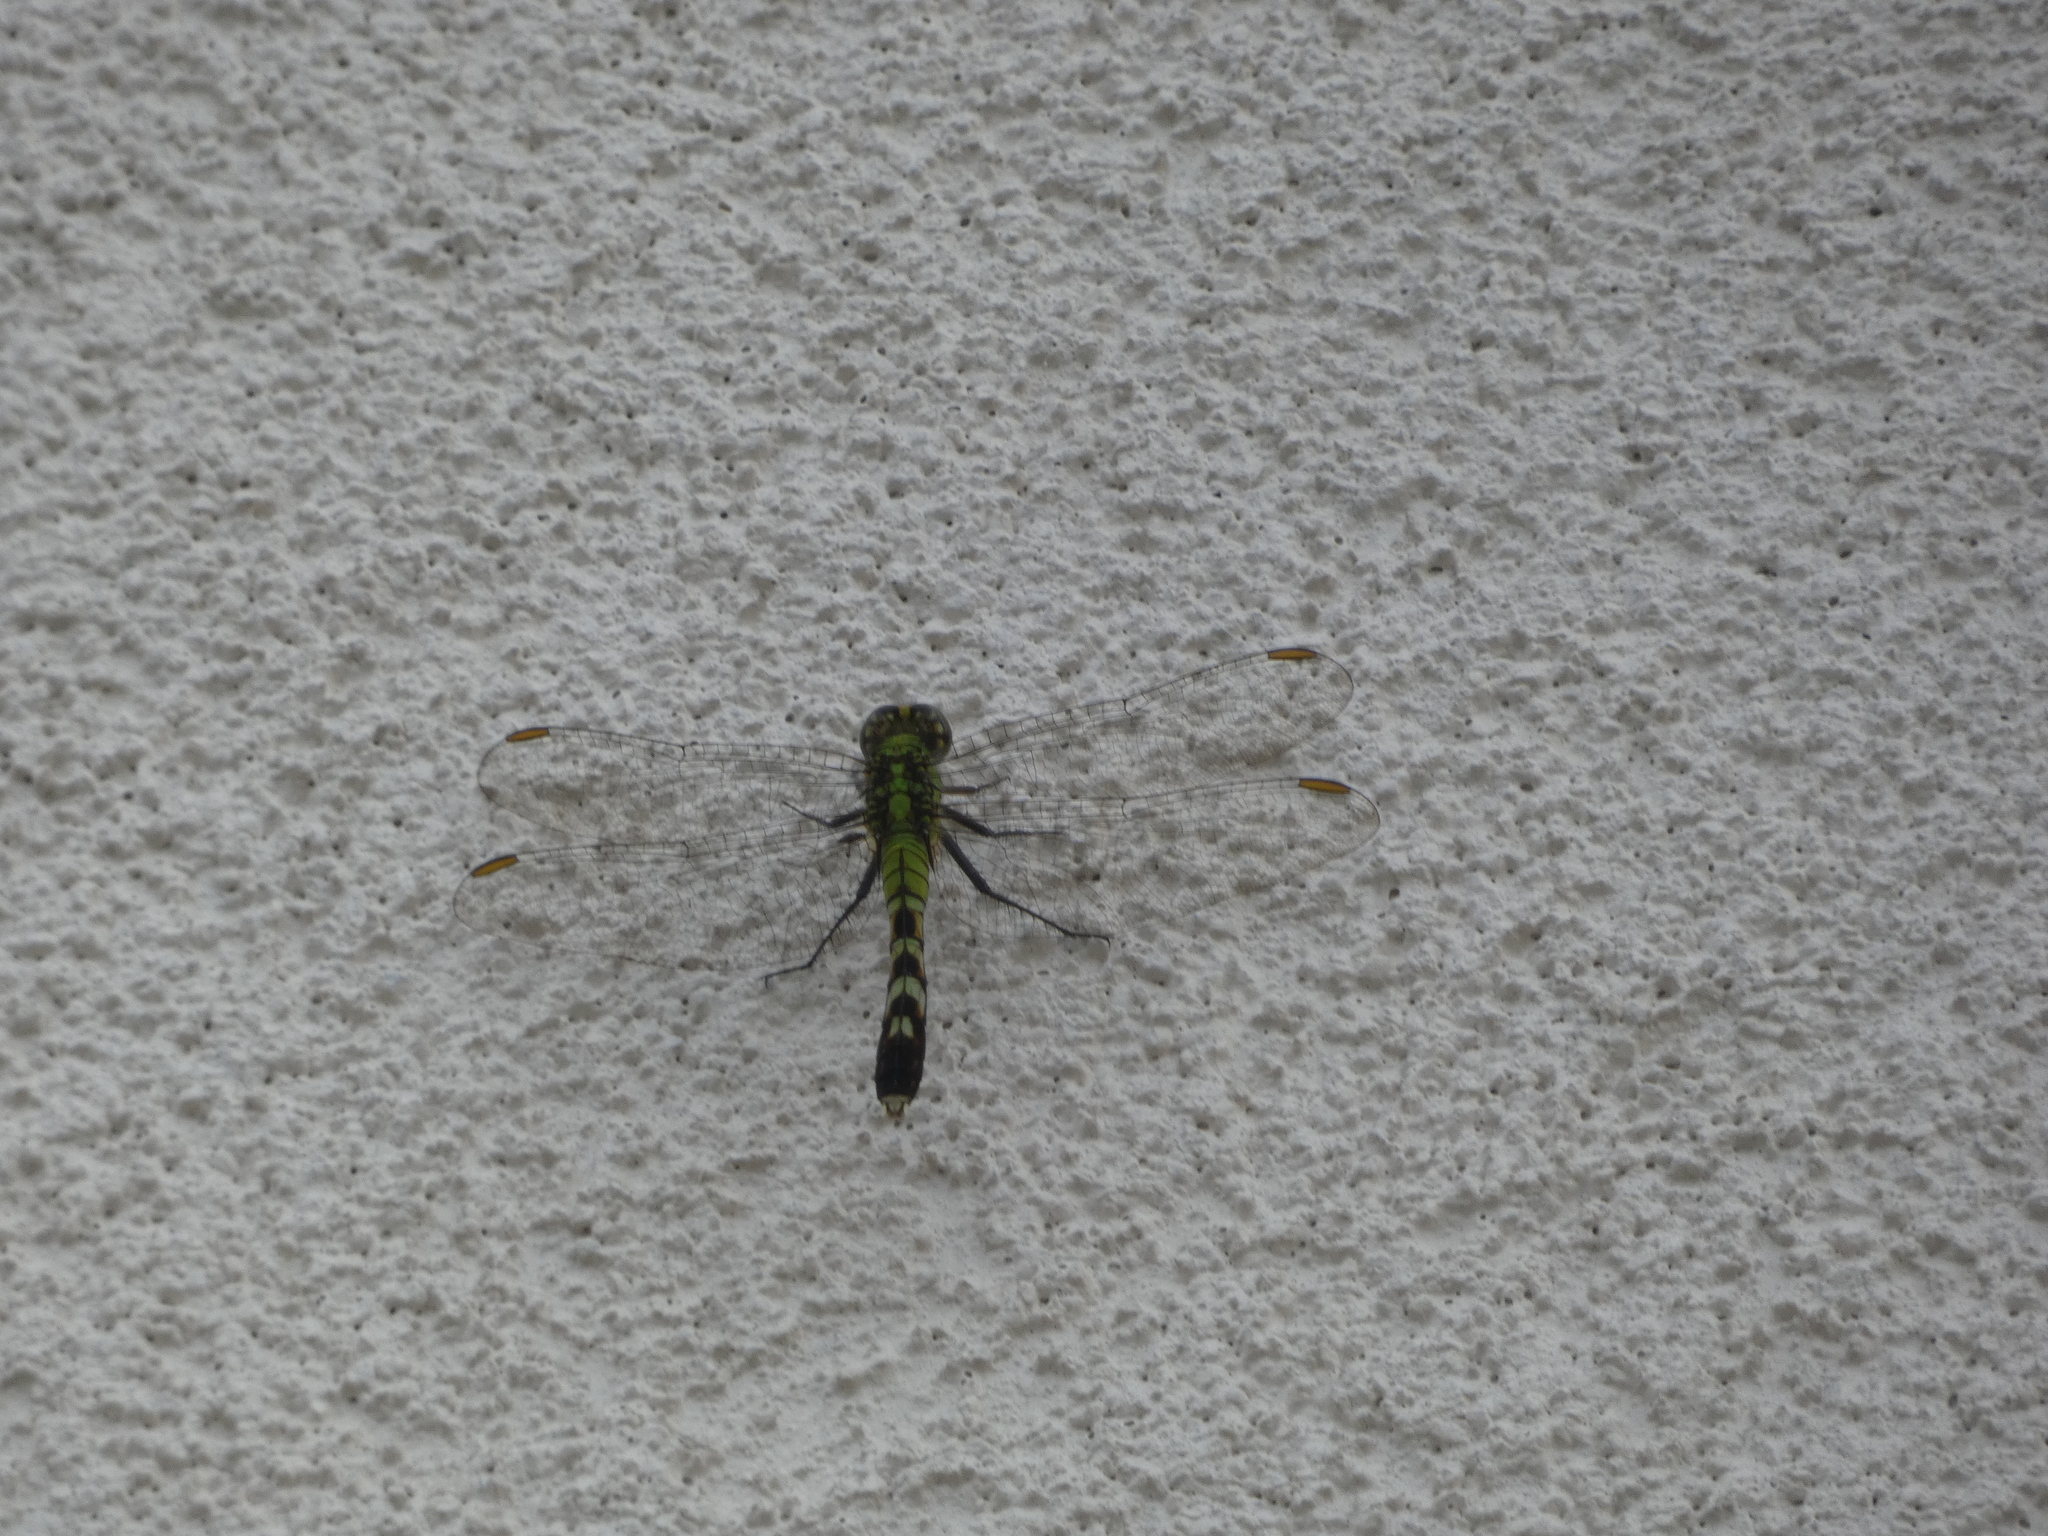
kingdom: Animalia
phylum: Arthropoda
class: Insecta
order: Odonata
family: Libellulidae
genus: Erythemis
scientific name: Erythemis simplicicollis
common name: Eastern pondhawk
